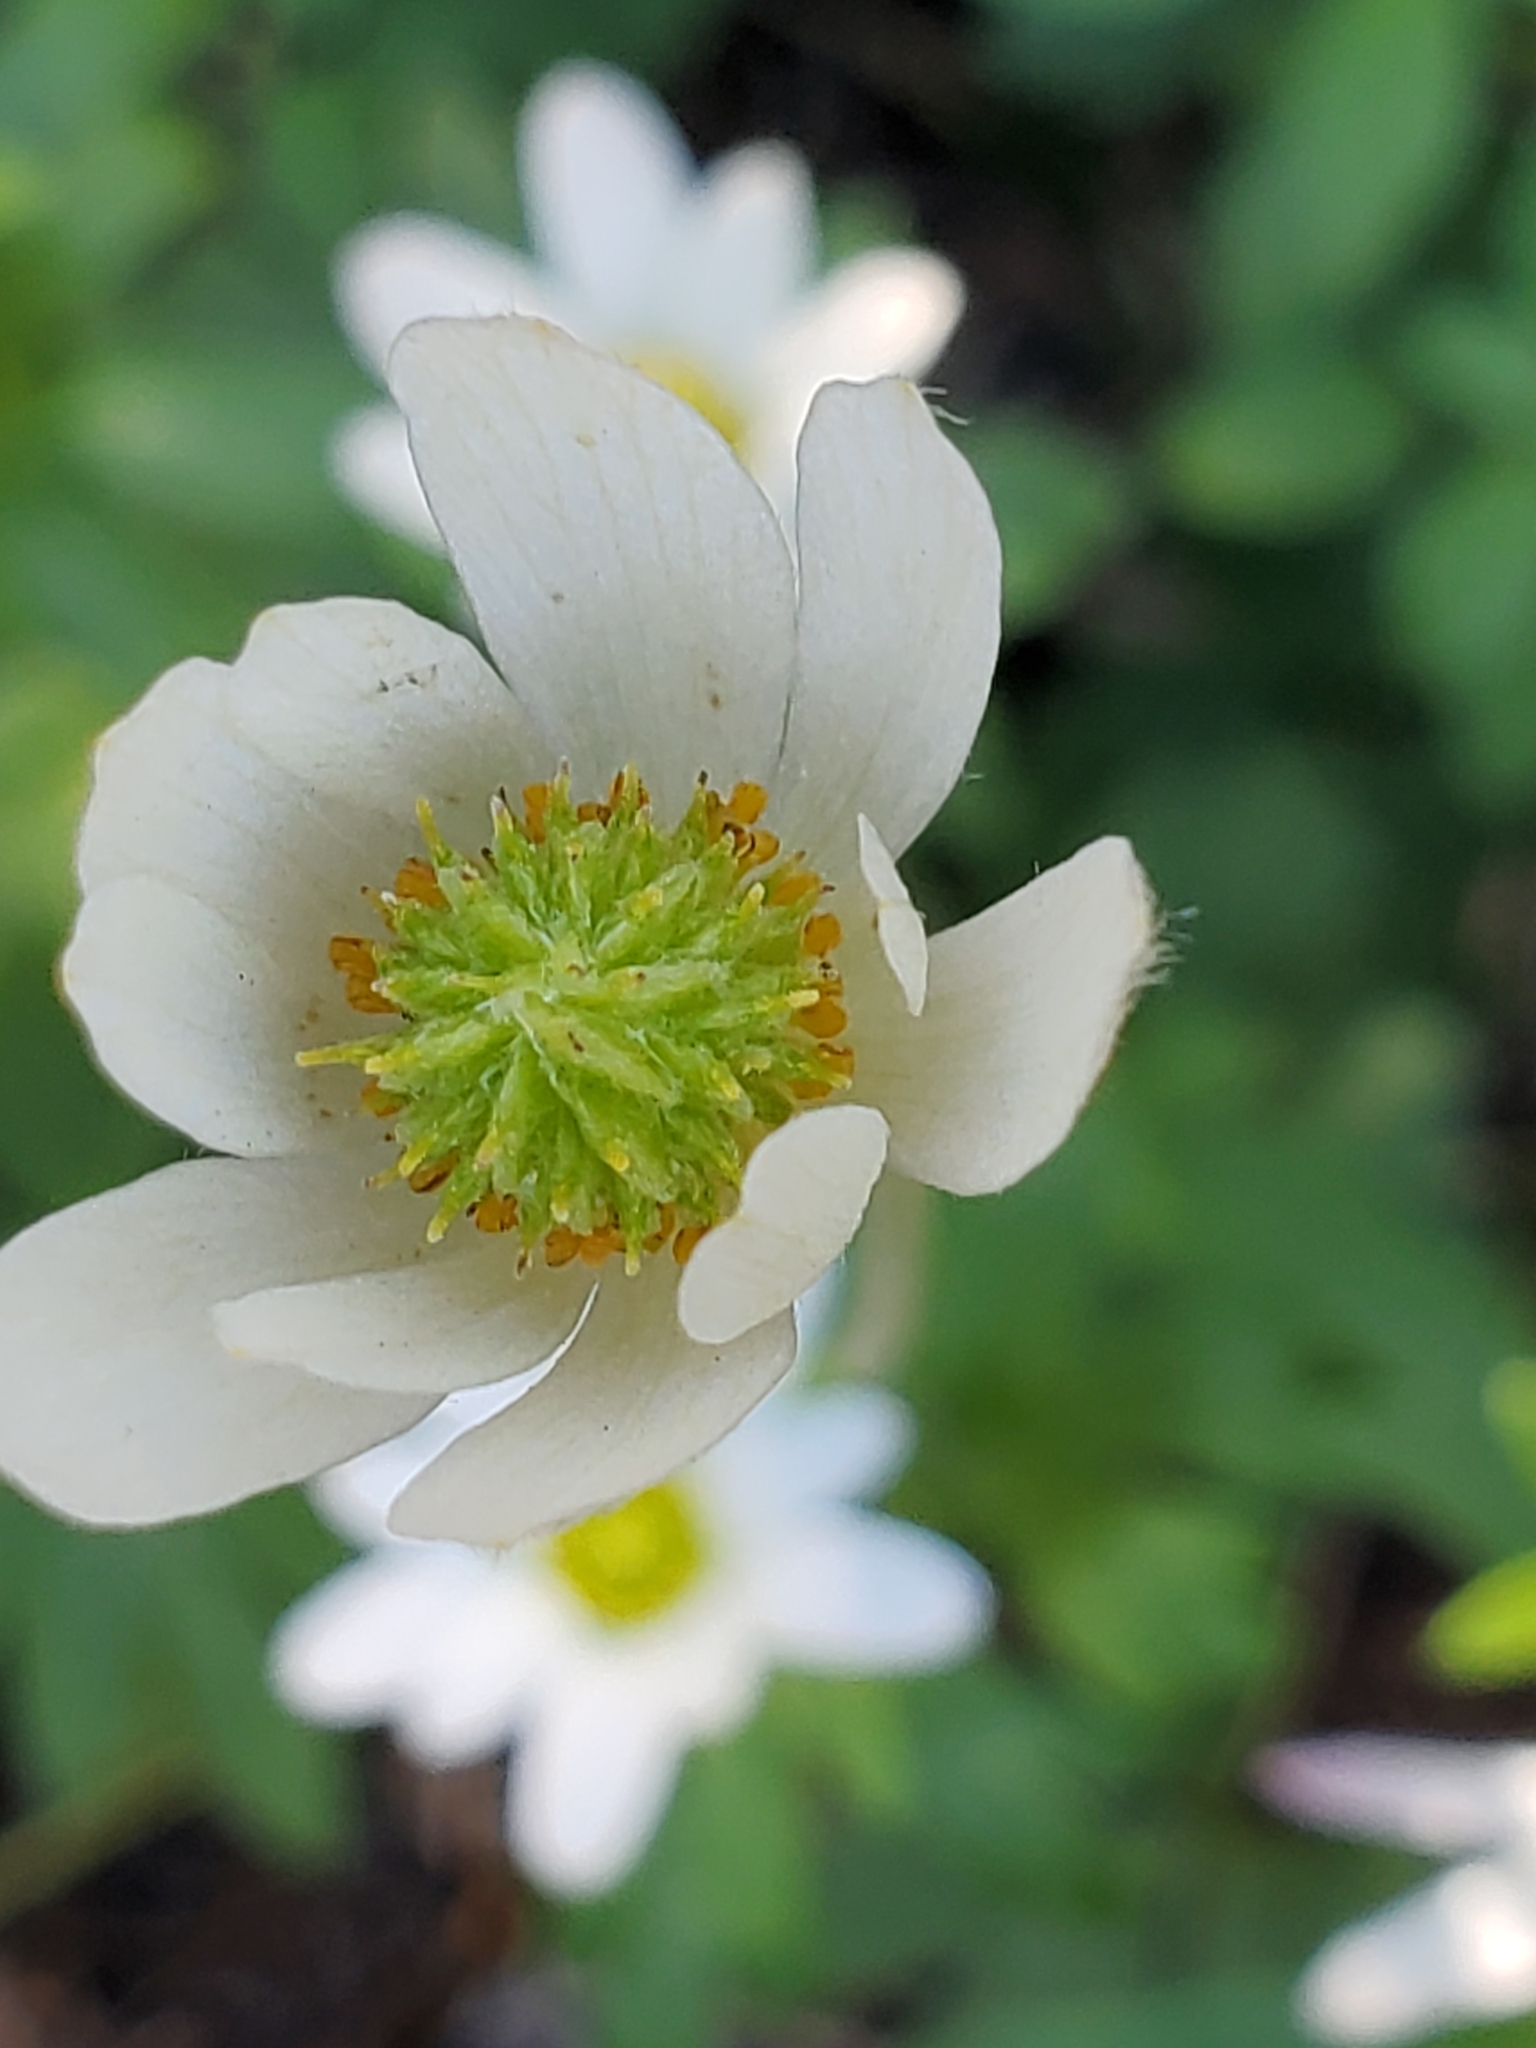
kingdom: Plantae
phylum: Tracheophyta
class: Magnoliopsida
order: Ranunculales
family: Ranunculaceae
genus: Anemone
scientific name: Anemone edwardsiana
